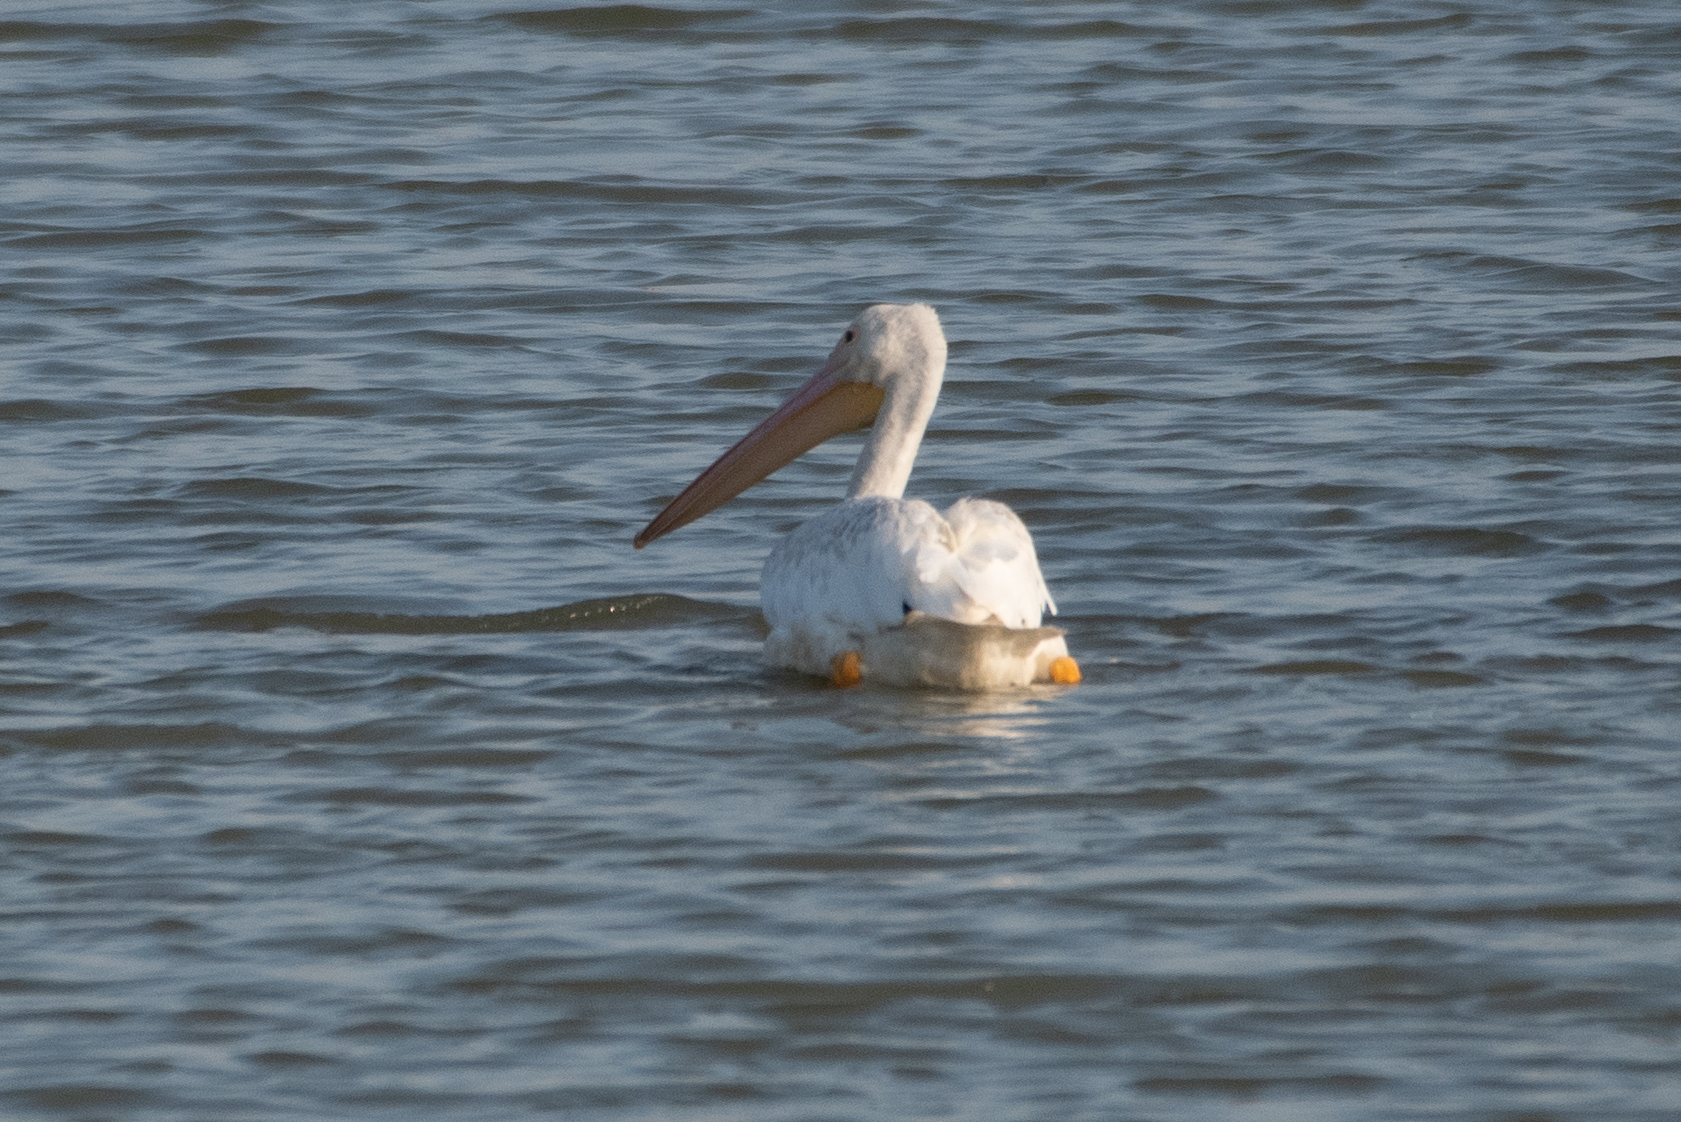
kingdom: Animalia
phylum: Chordata
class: Aves
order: Pelecaniformes
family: Pelecanidae
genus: Pelecanus
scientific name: Pelecanus erythrorhynchos
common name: American white pelican
